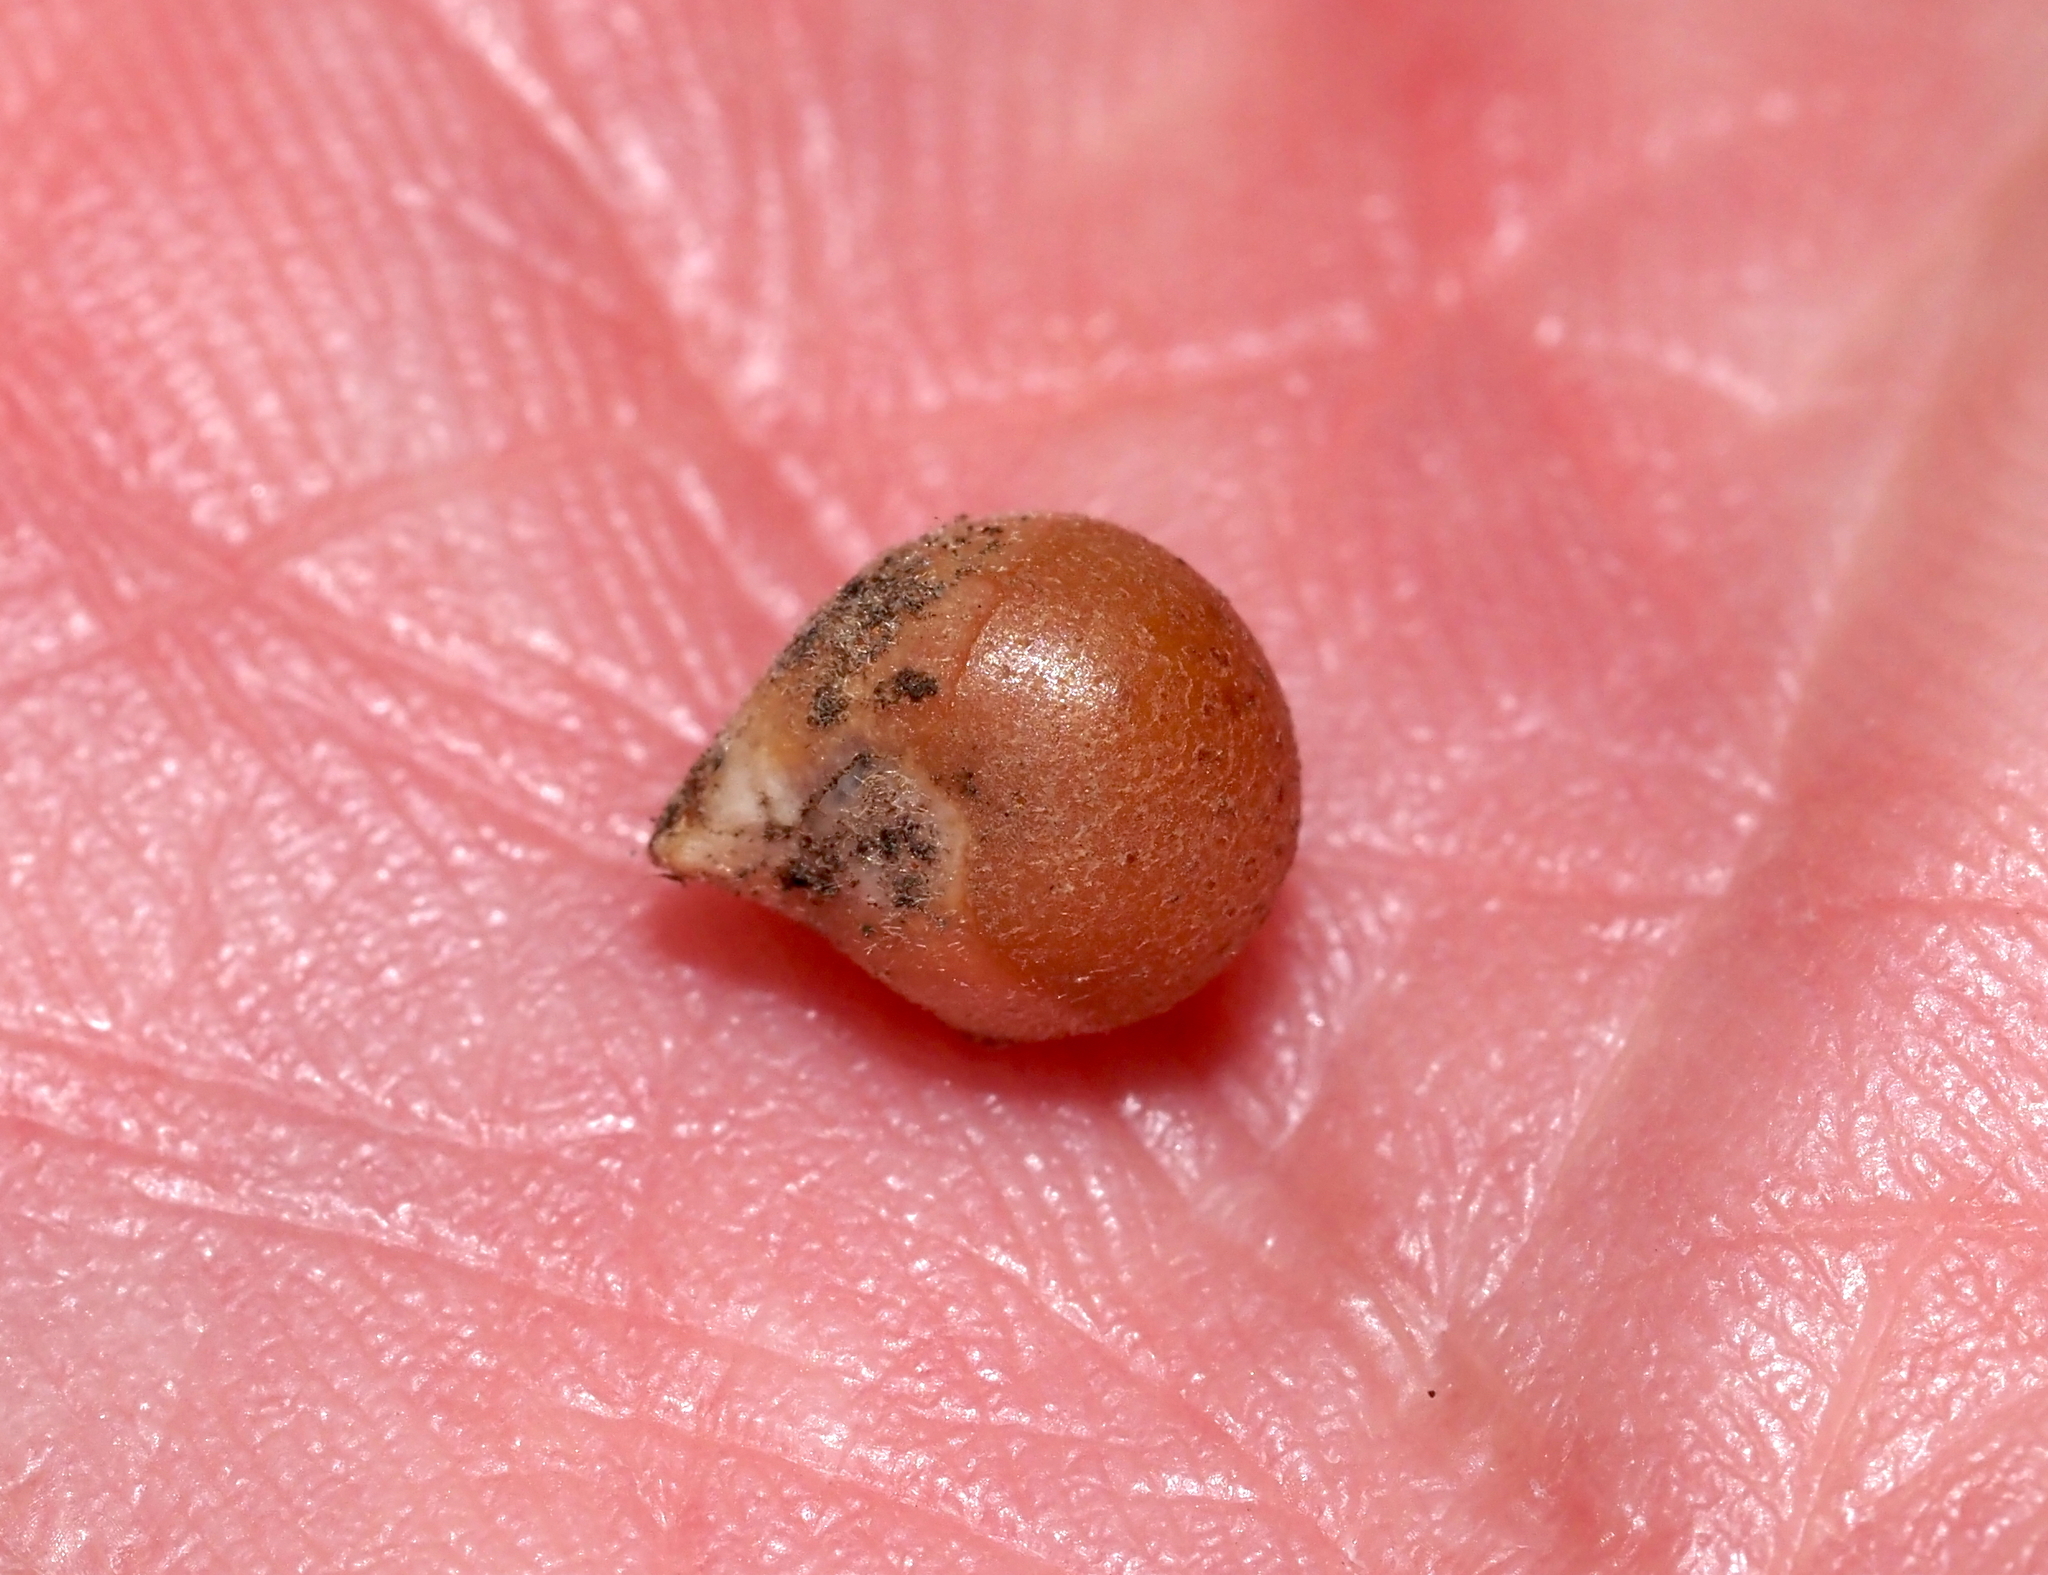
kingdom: Animalia
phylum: Arthropoda
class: Insecta
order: Hymenoptera
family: Cynipidae
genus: Andricus
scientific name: Andricus
